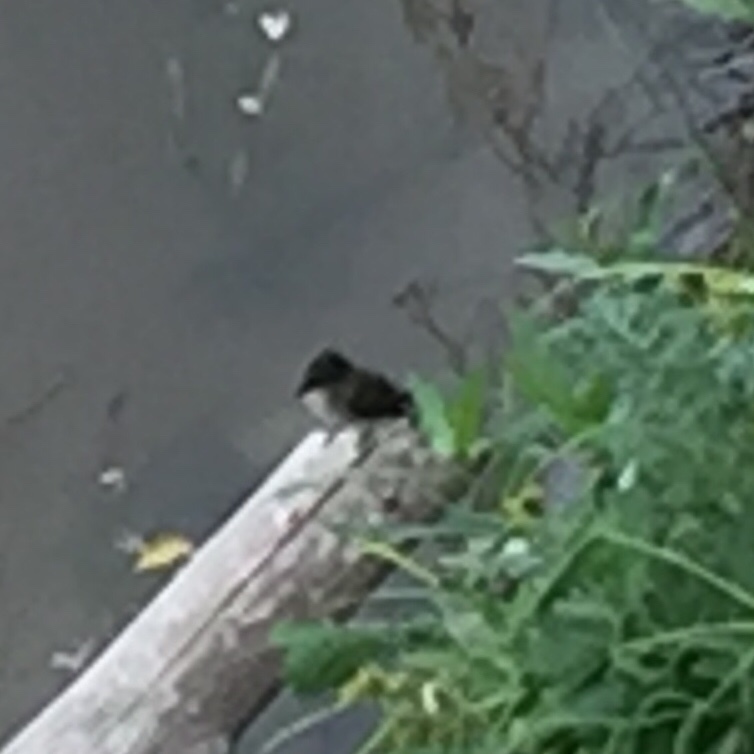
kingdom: Animalia
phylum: Chordata
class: Aves
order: Passeriformes
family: Tyrannidae
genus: Sayornis
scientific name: Sayornis phoebe
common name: Eastern phoebe
